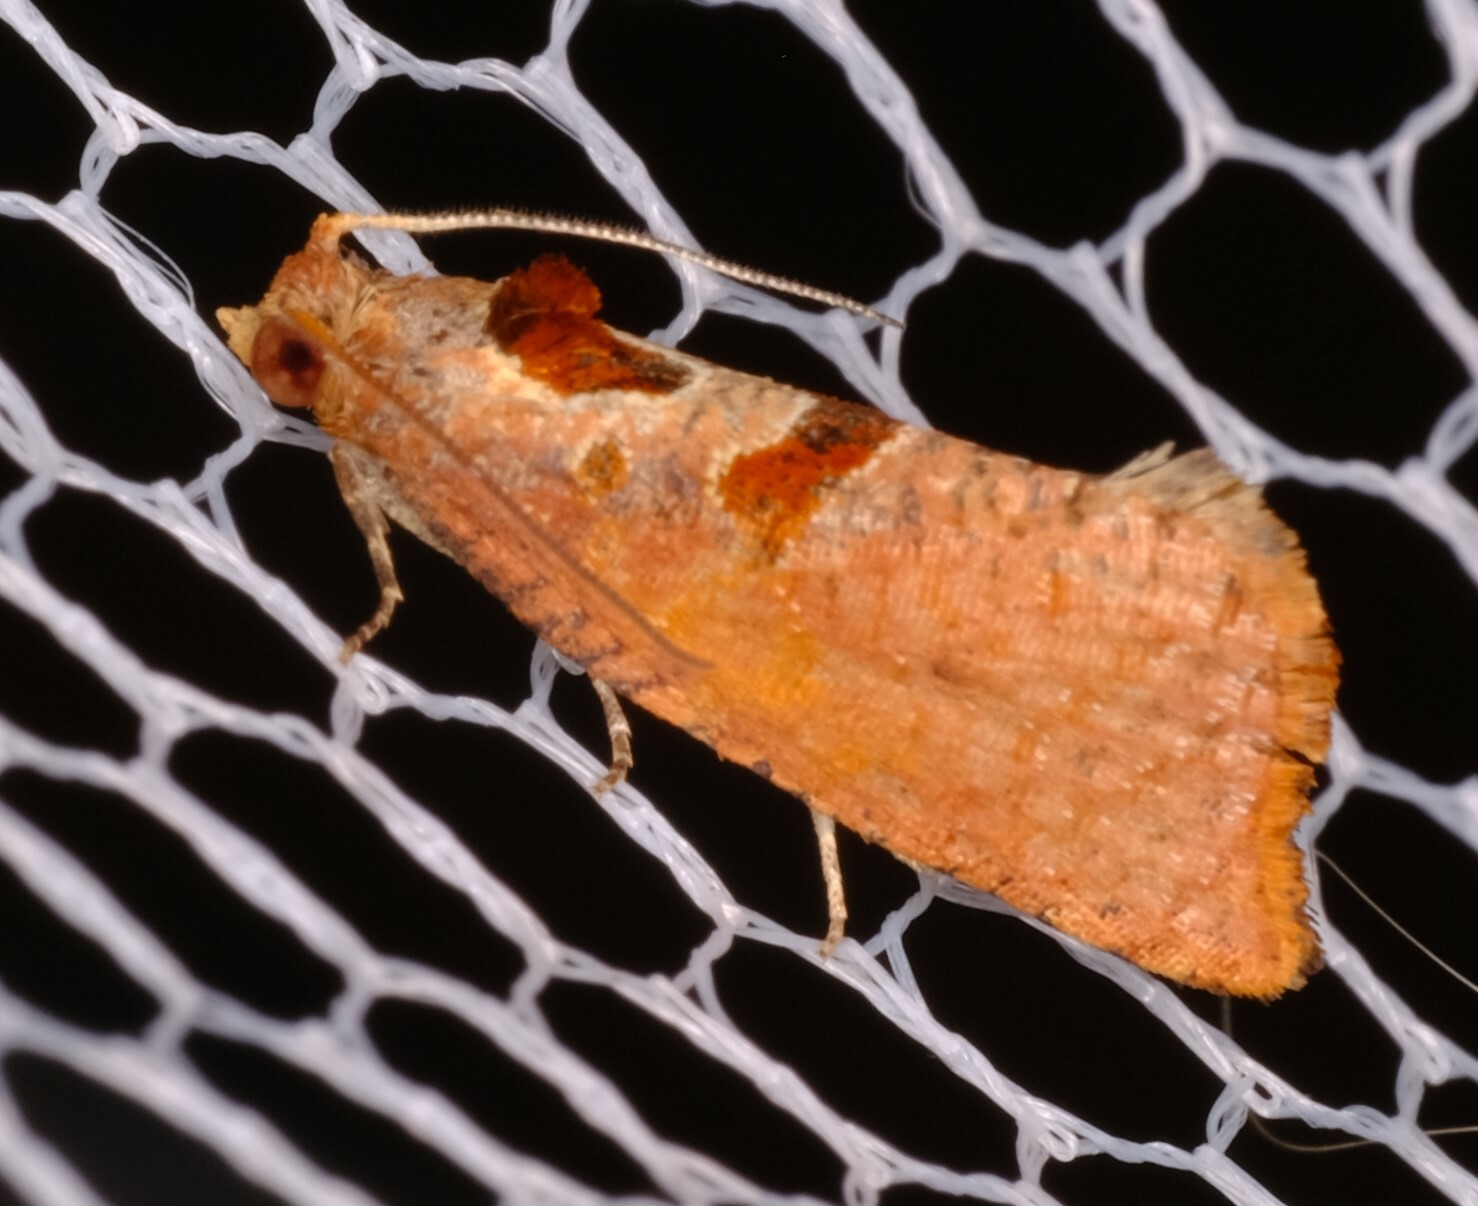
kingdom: Animalia
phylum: Arthropoda
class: Insecta
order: Lepidoptera
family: Tortricidae
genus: Glyphidoptera
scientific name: Glyphidoptera insignana
